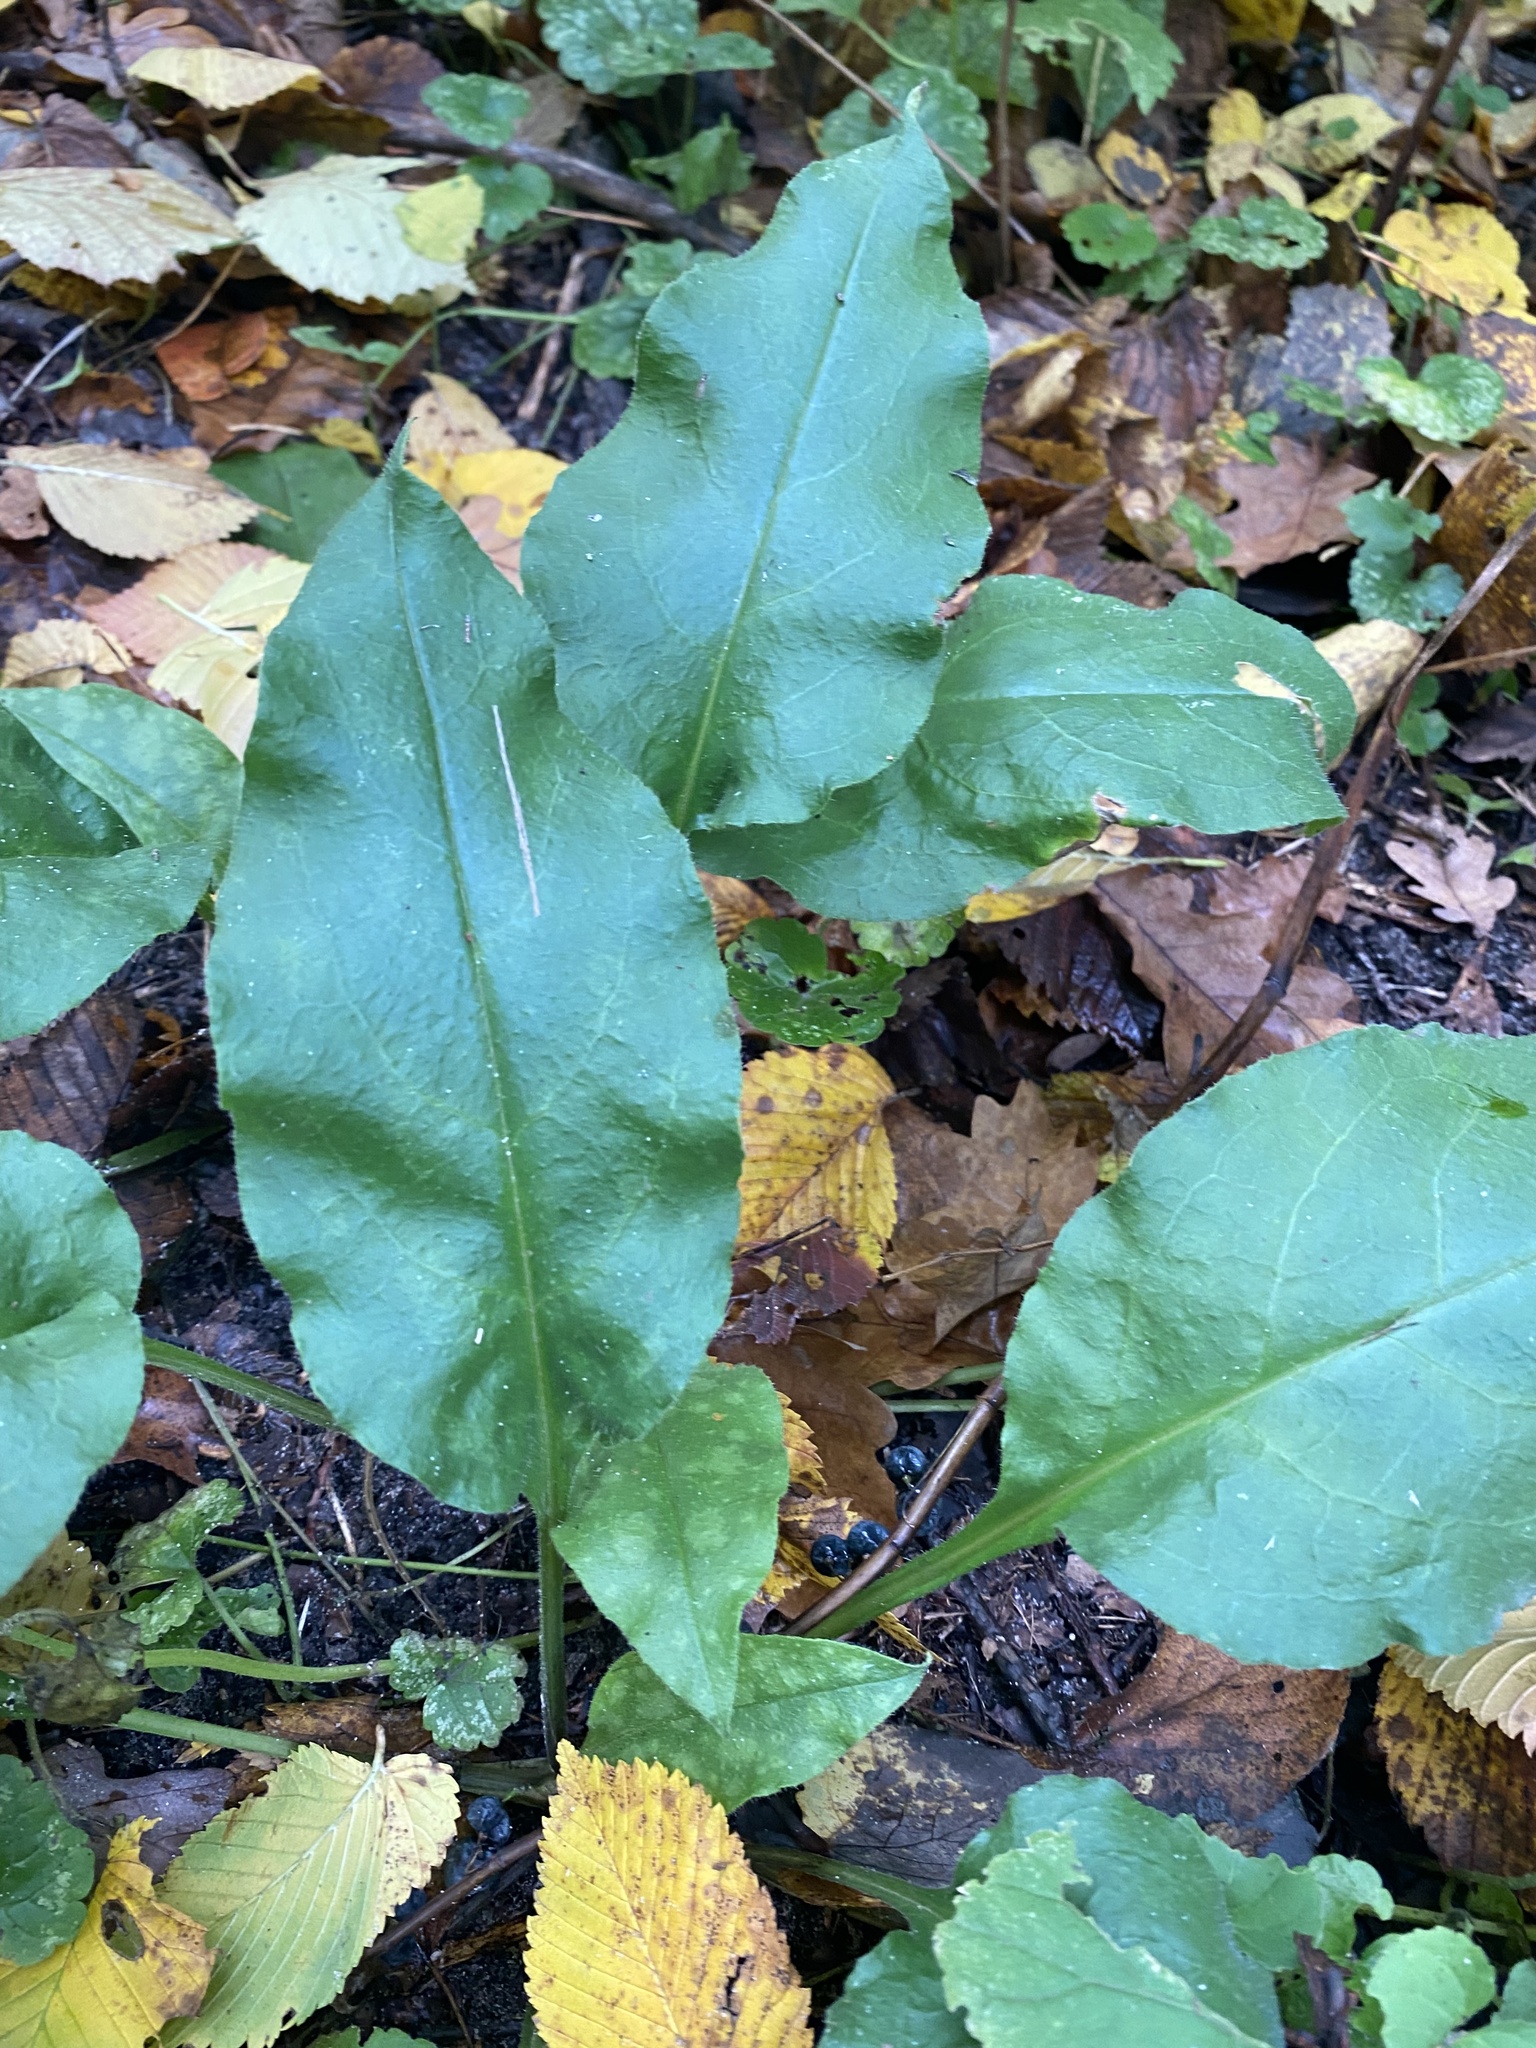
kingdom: Plantae
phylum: Tracheophyta
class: Magnoliopsida
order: Boraginales
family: Boraginaceae
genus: Pulmonaria
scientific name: Pulmonaria obscura
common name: Suffolk lungwort
